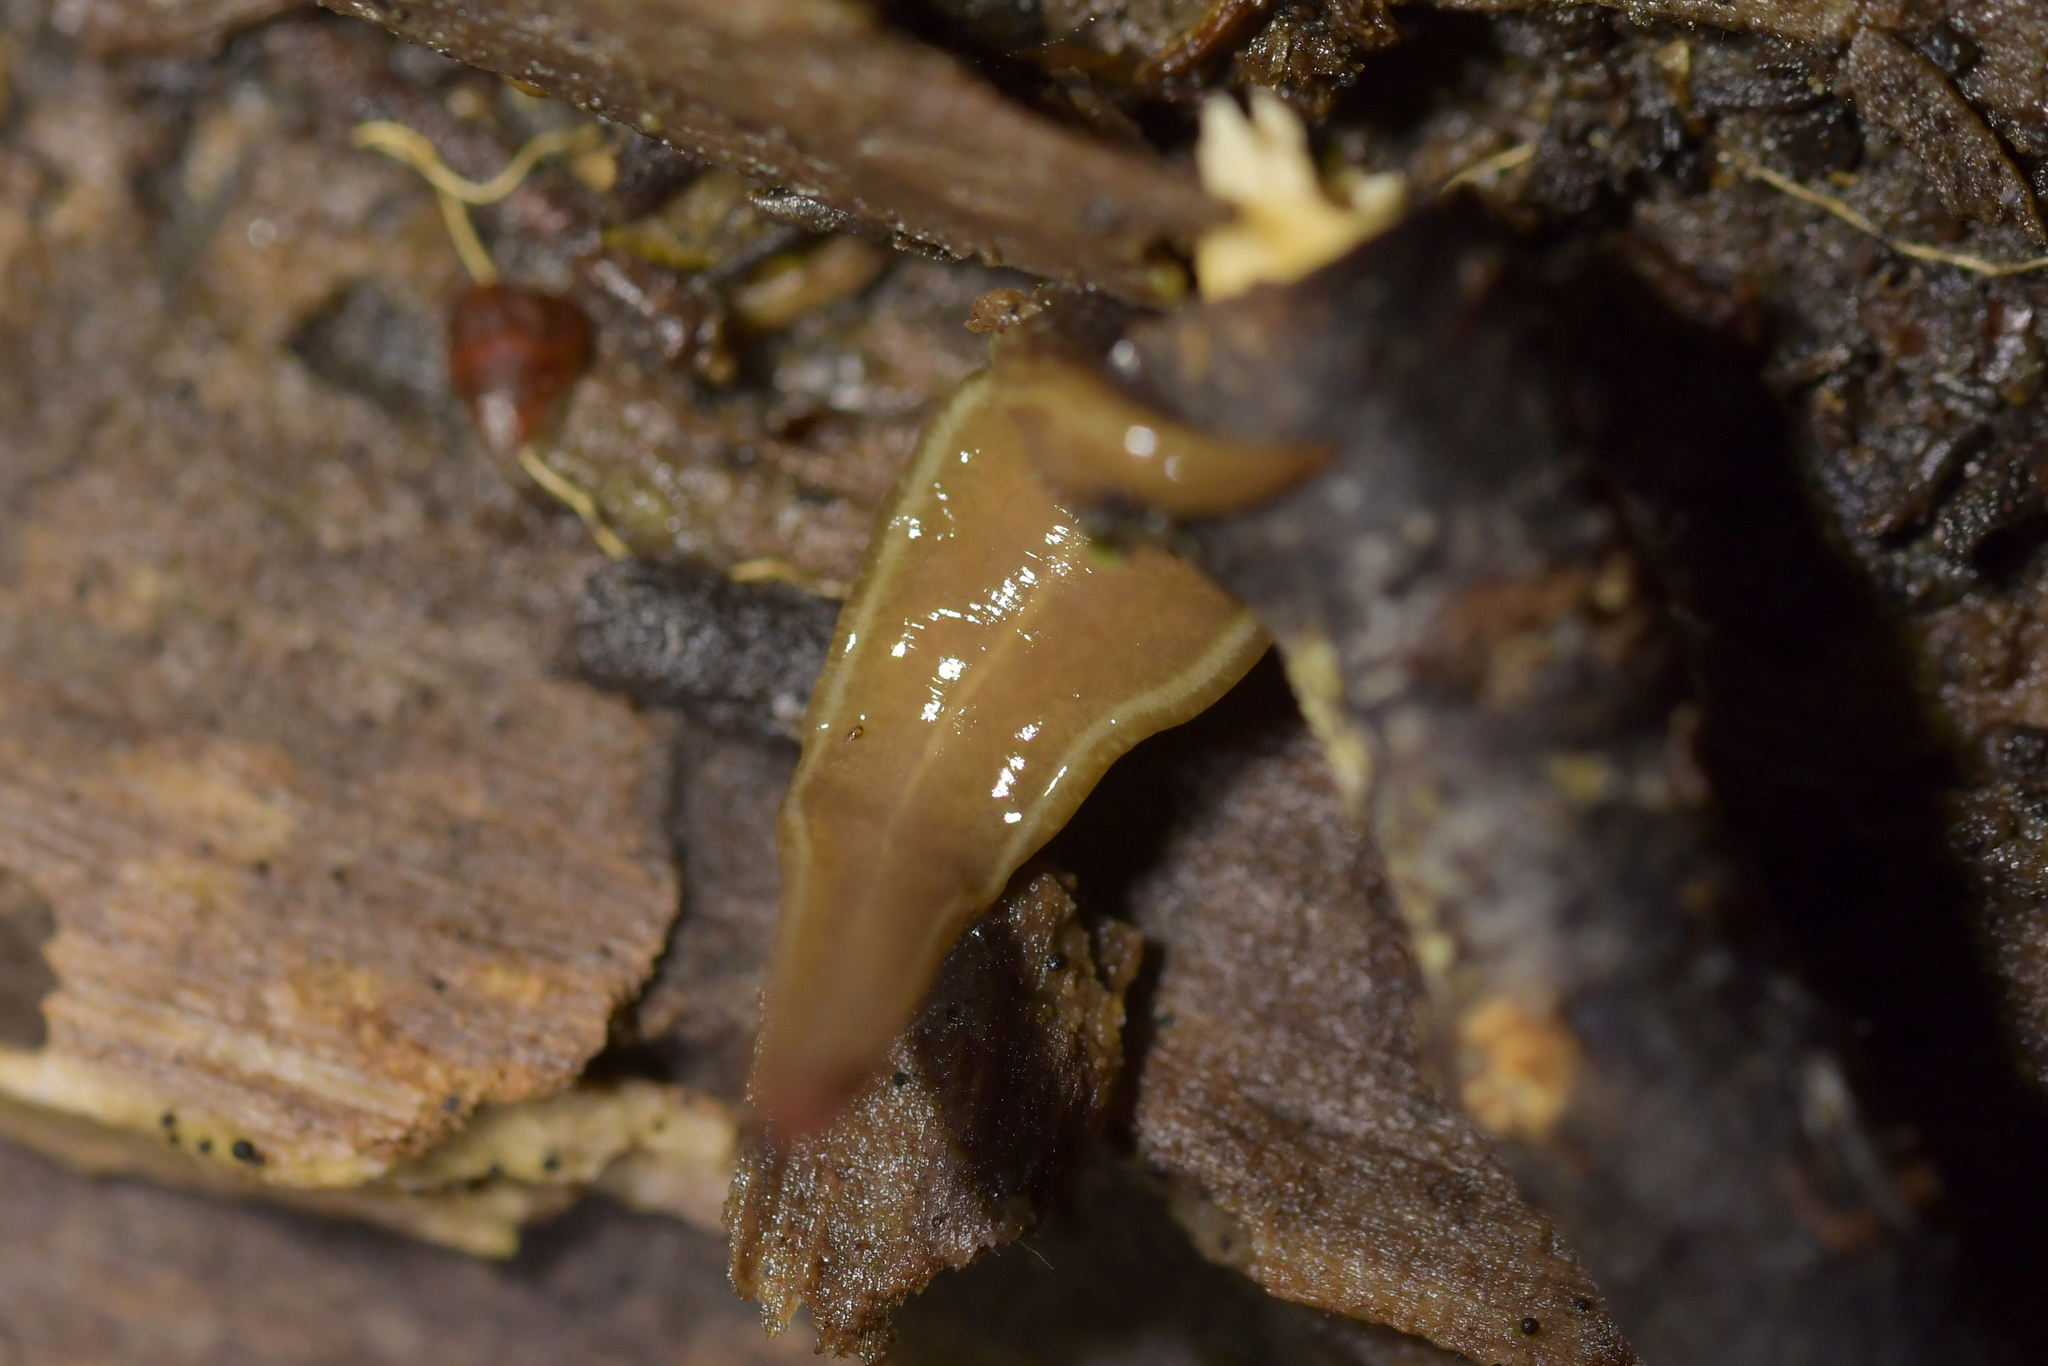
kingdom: Animalia
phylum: Platyhelminthes
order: Tricladida
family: Geoplanidae
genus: Newzealandia
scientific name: Newzealandia graffii
